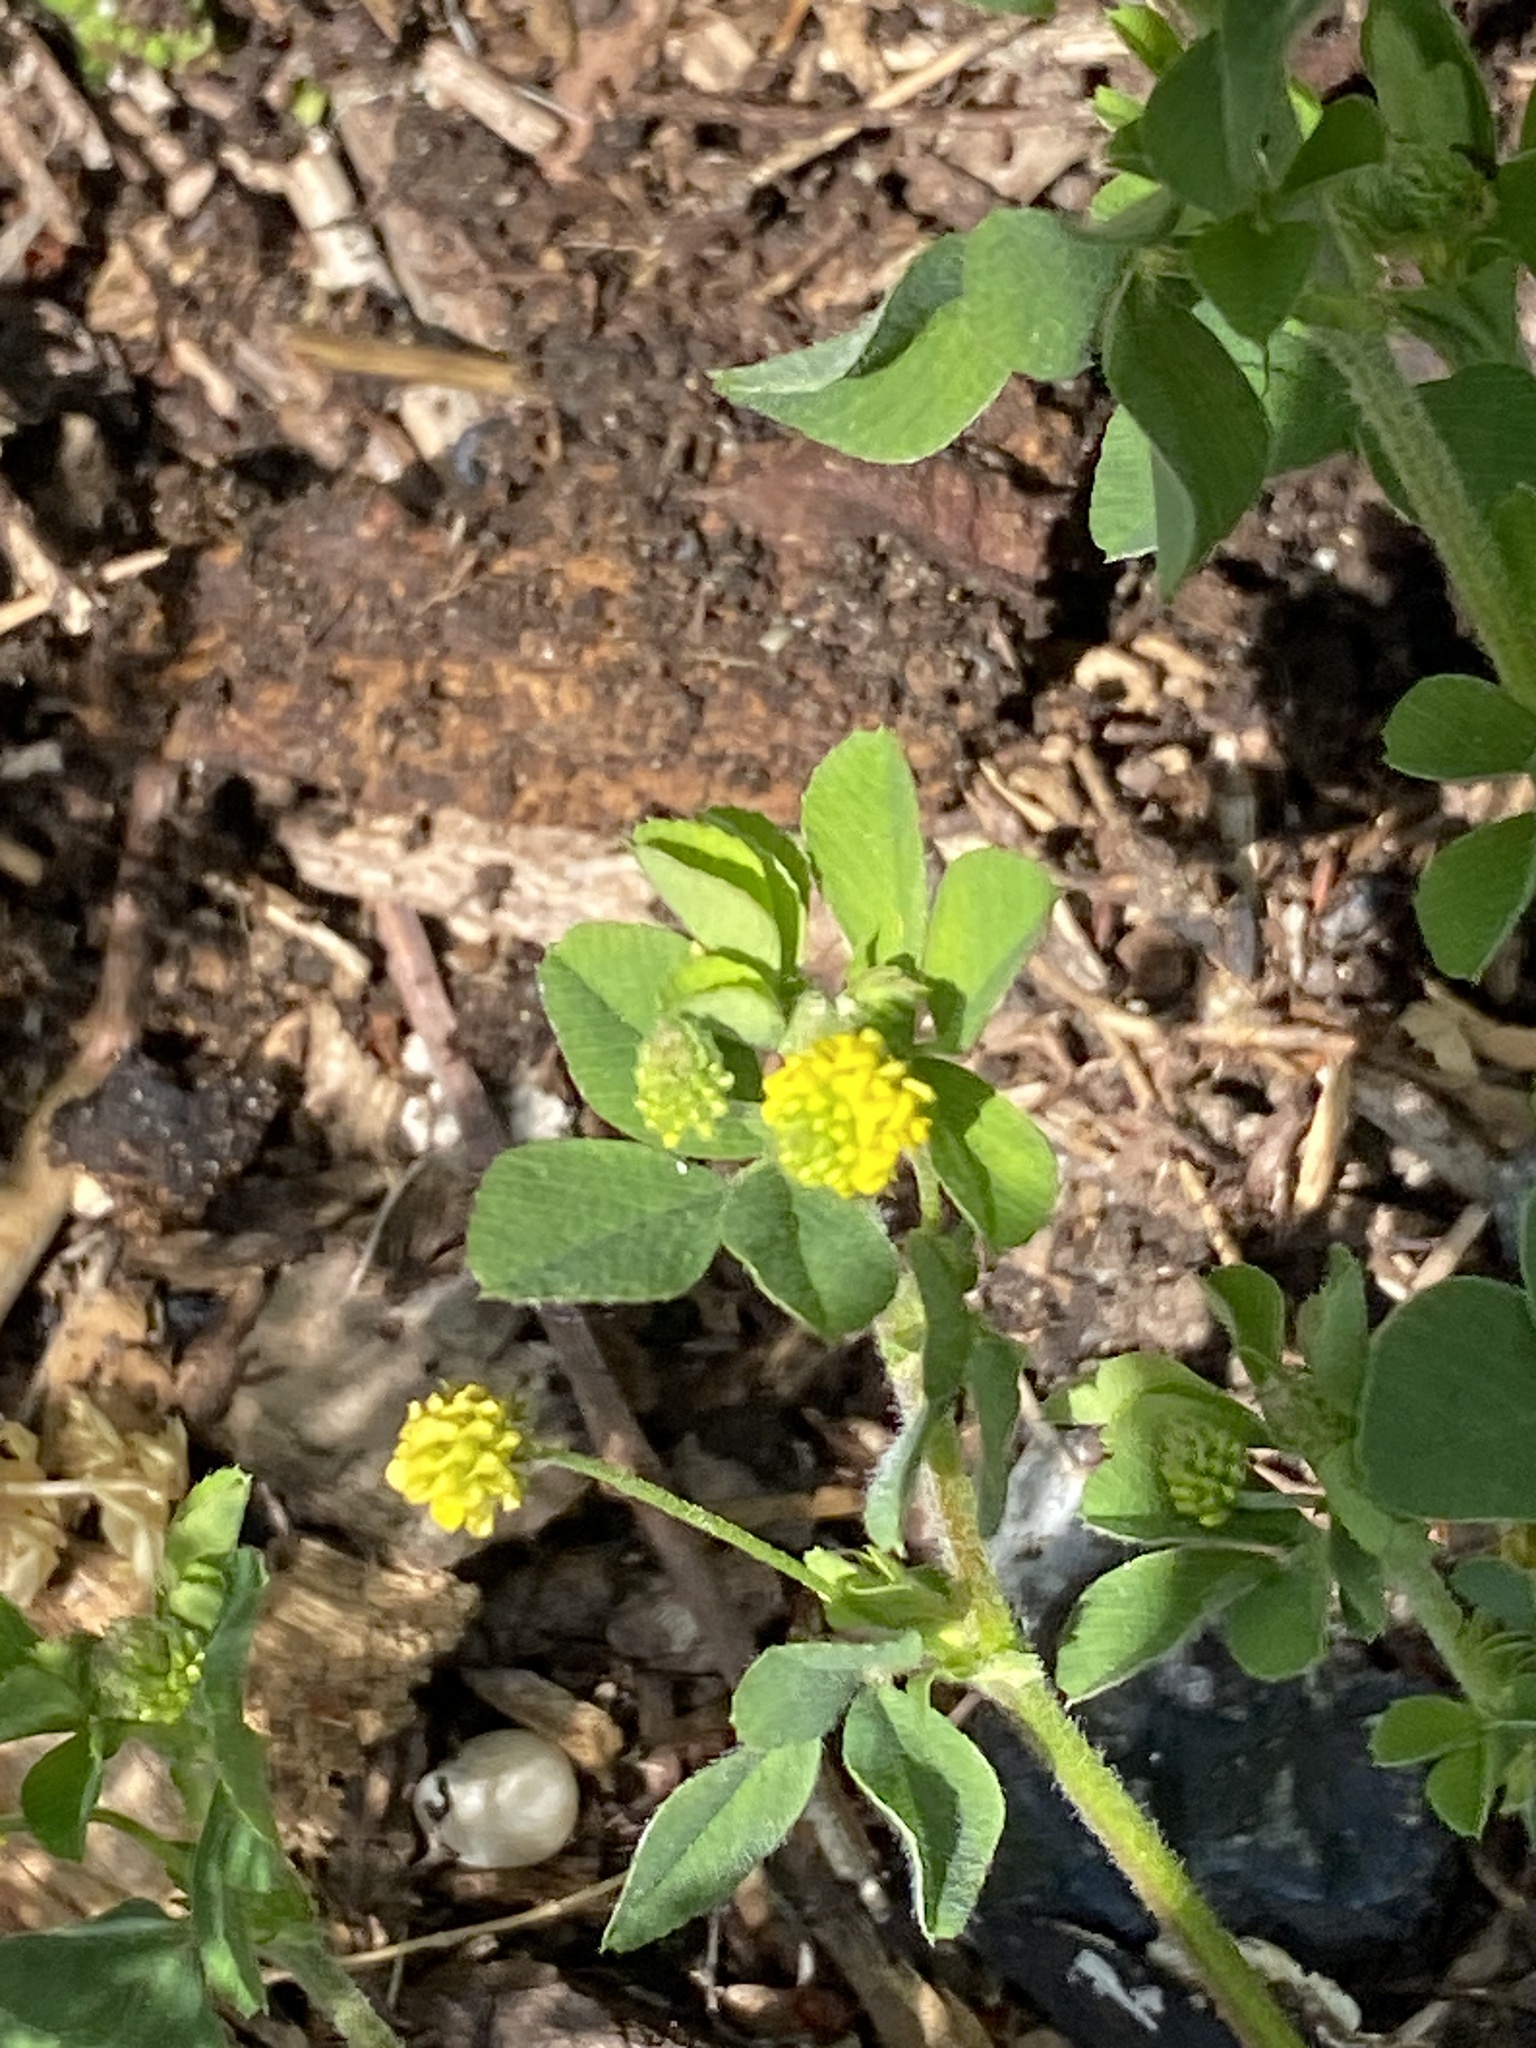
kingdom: Plantae
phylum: Tracheophyta
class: Magnoliopsida
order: Fabales
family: Fabaceae
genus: Medicago
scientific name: Medicago lupulina
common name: Black medick
